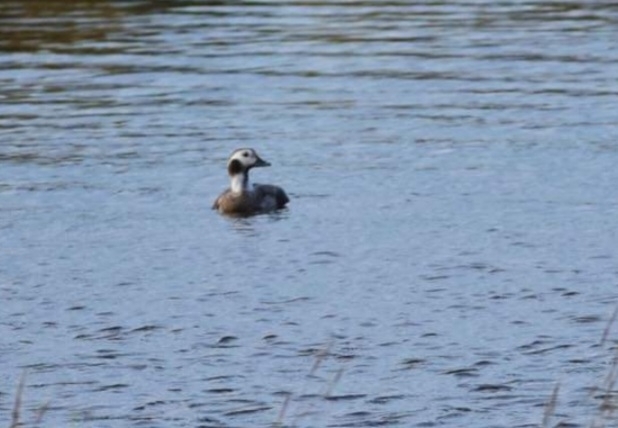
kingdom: Animalia
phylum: Chordata
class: Aves
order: Anseriformes
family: Anatidae
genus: Clangula
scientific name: Clangula hyemalis
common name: Long-tailed duck
